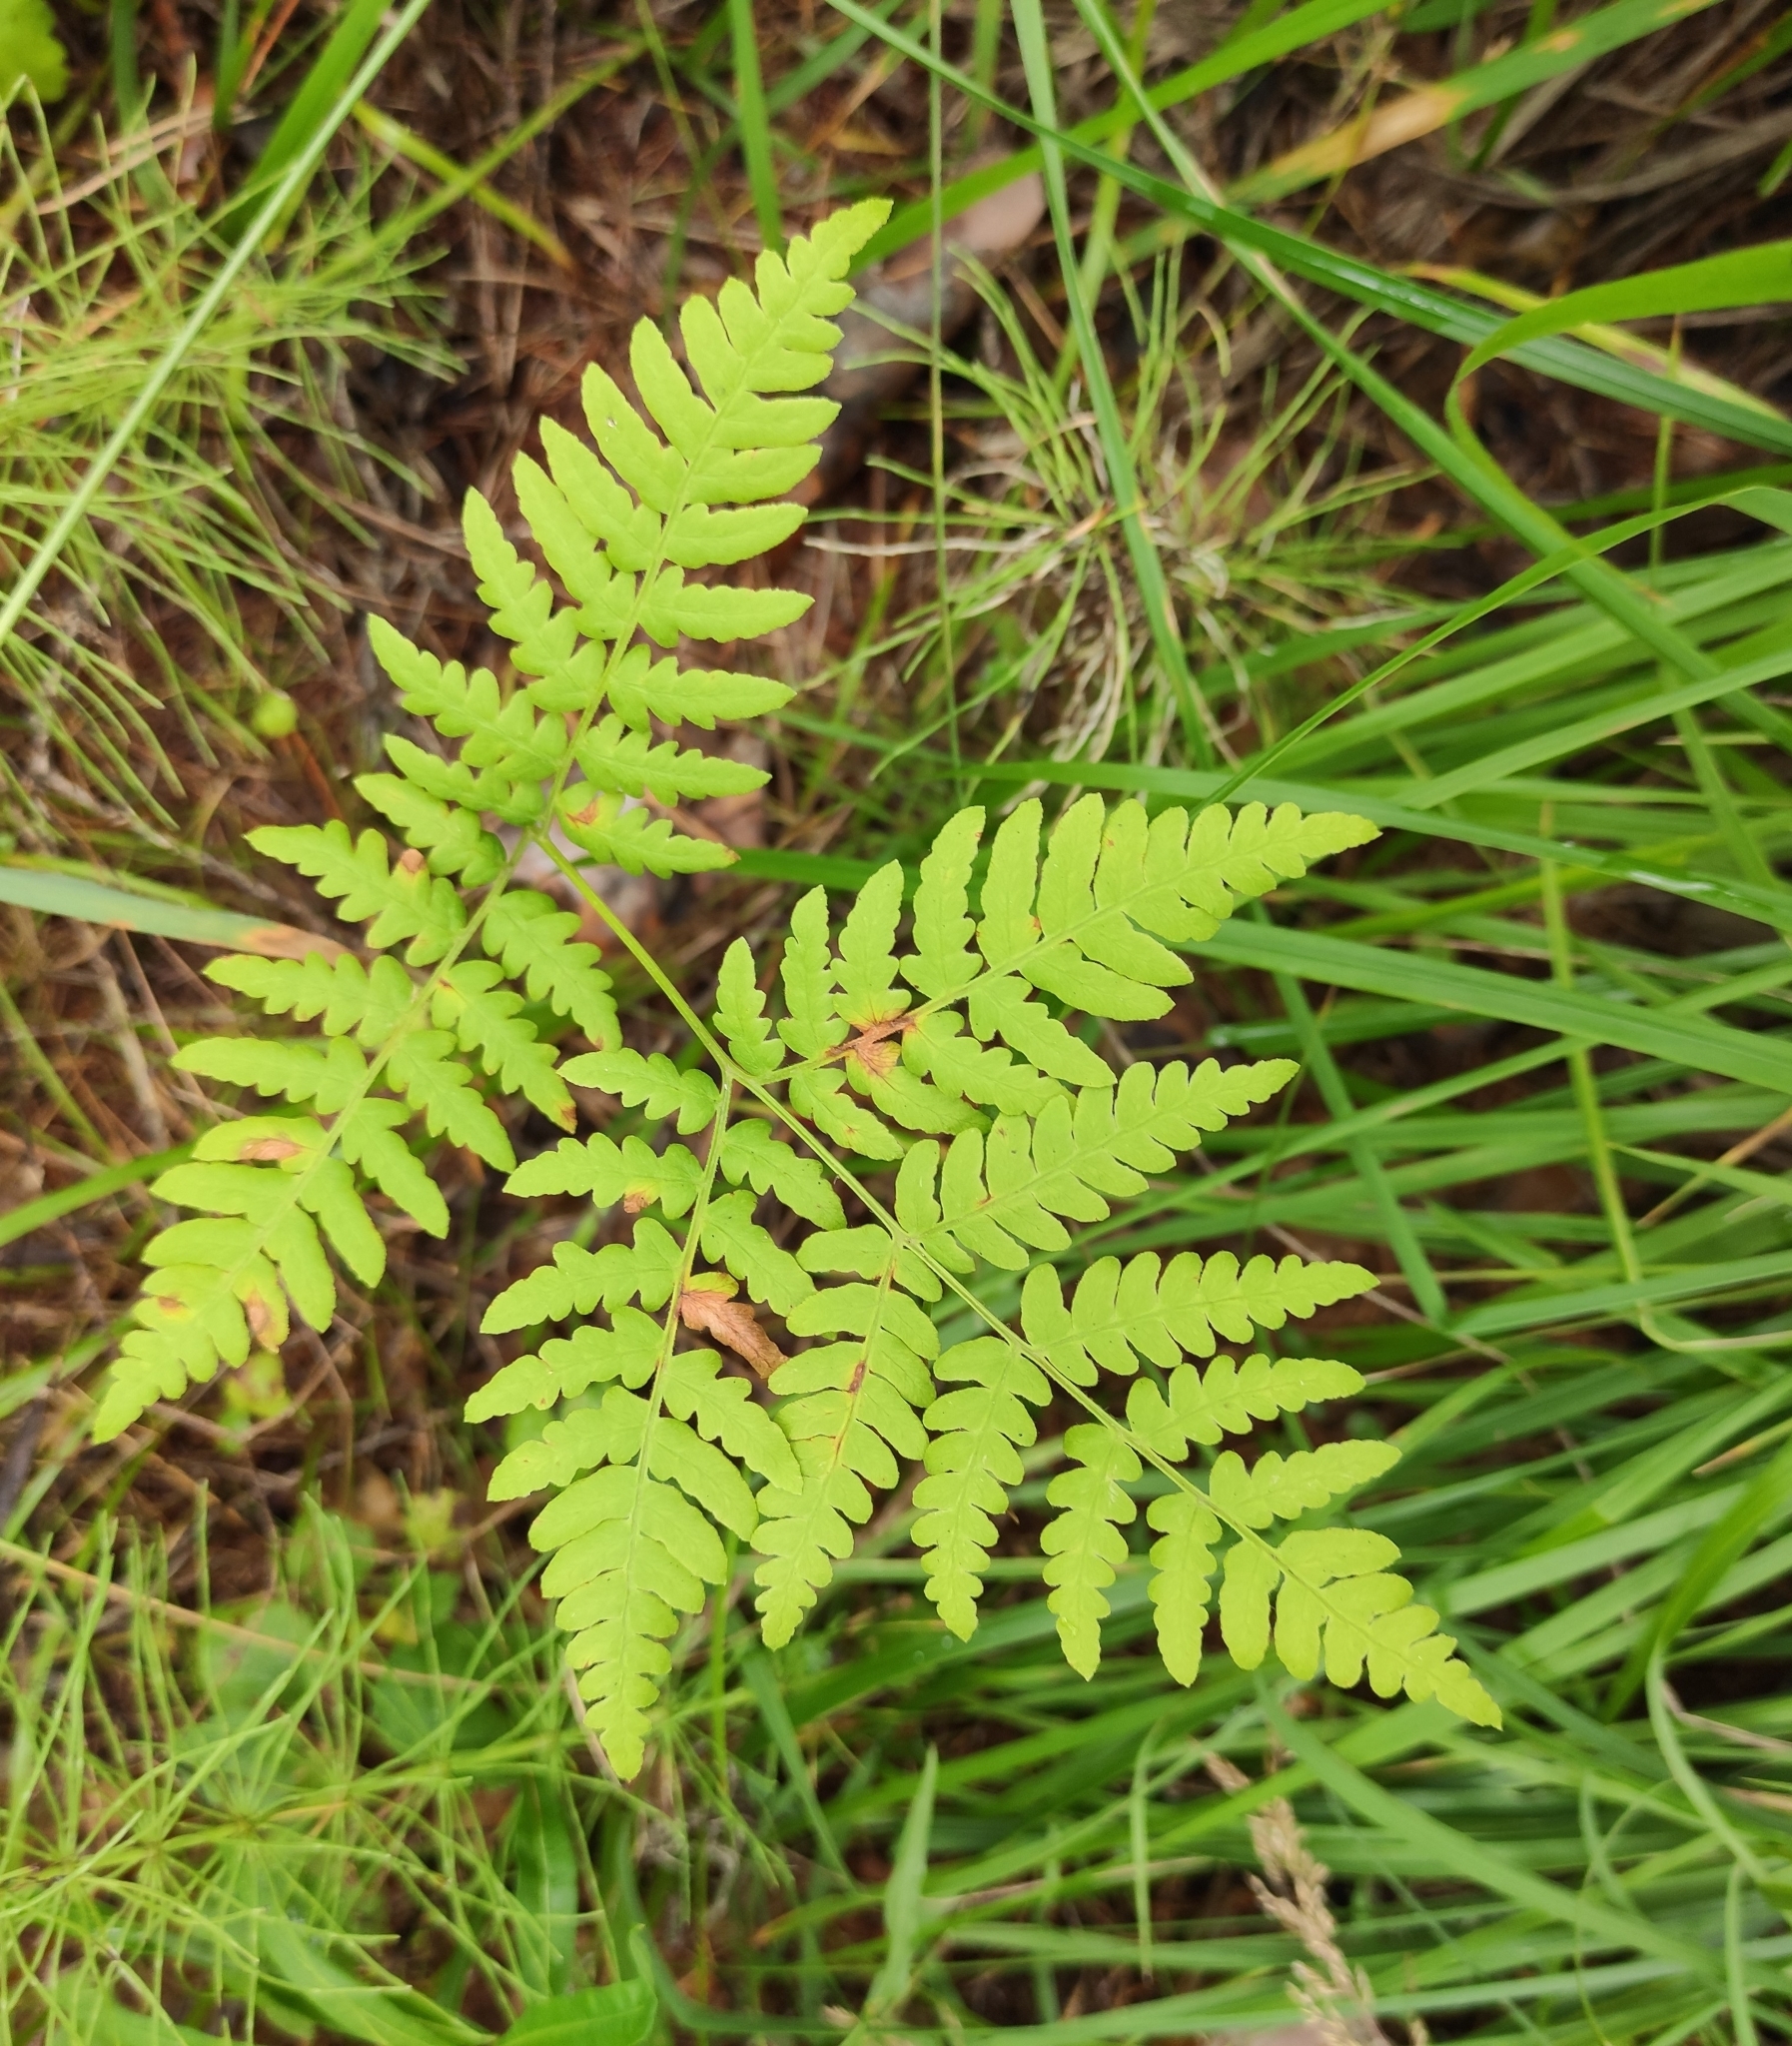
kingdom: Plantae
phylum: Tracheophyta
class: Polypodiopsida
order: Polypodiales
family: Dennstaedtiaceae
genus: Pteridium
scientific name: Pteridium aquilinum
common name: Bracken
